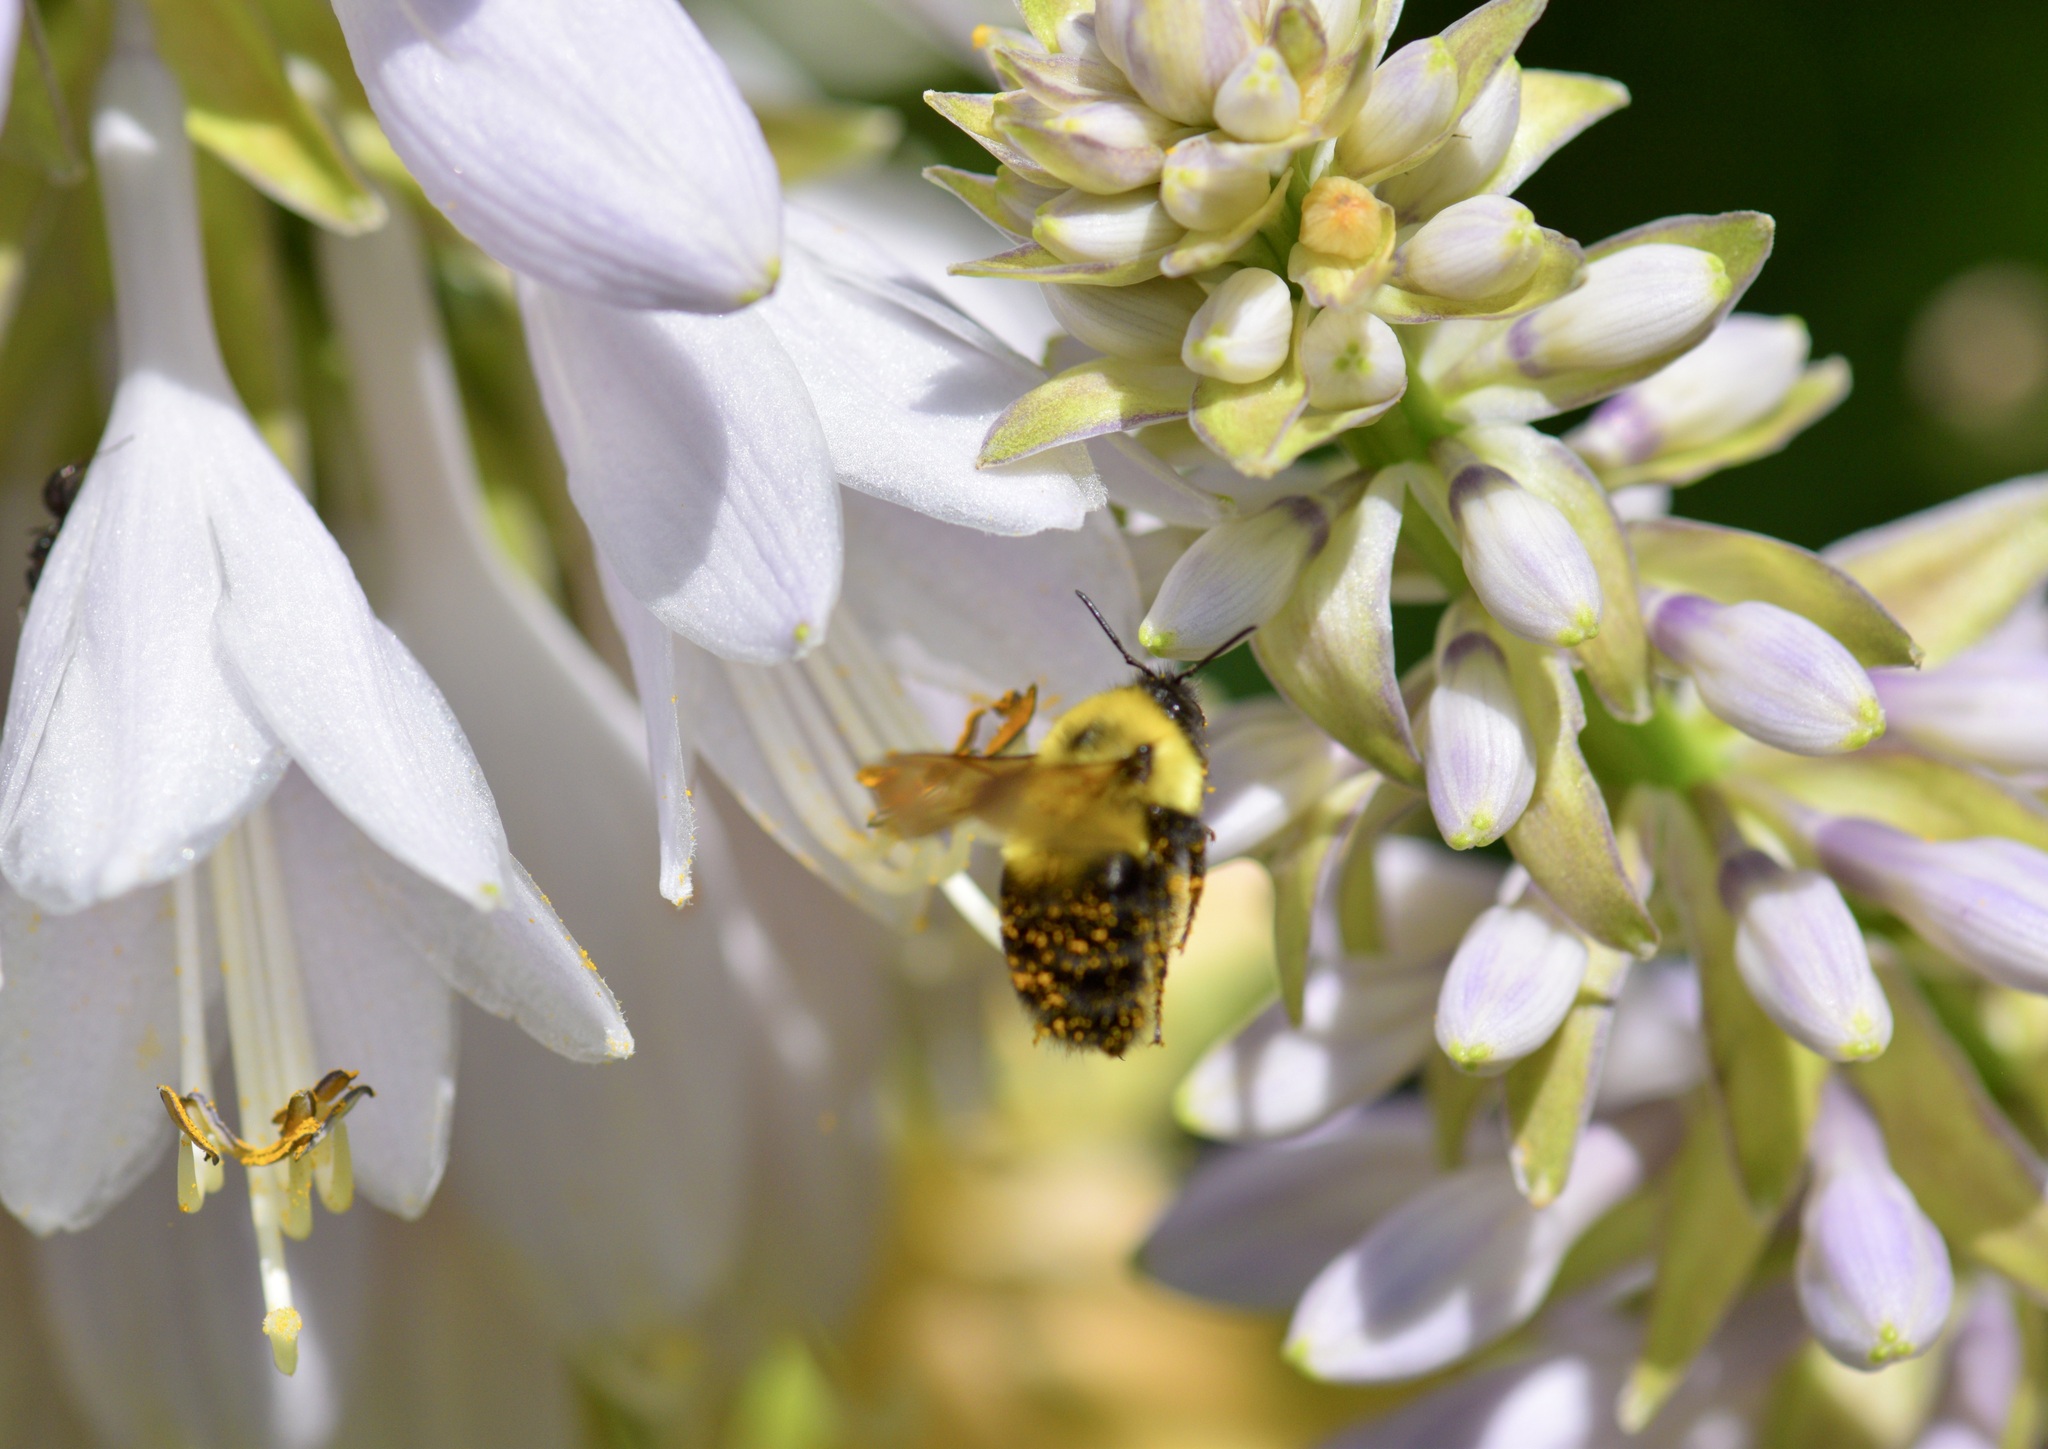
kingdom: Animalia
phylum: Arthropoda
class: Insecta
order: Hymenoptera
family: Apidae
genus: Bombus
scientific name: Bombus bimaculatus
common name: Two-spotted bumble bee
